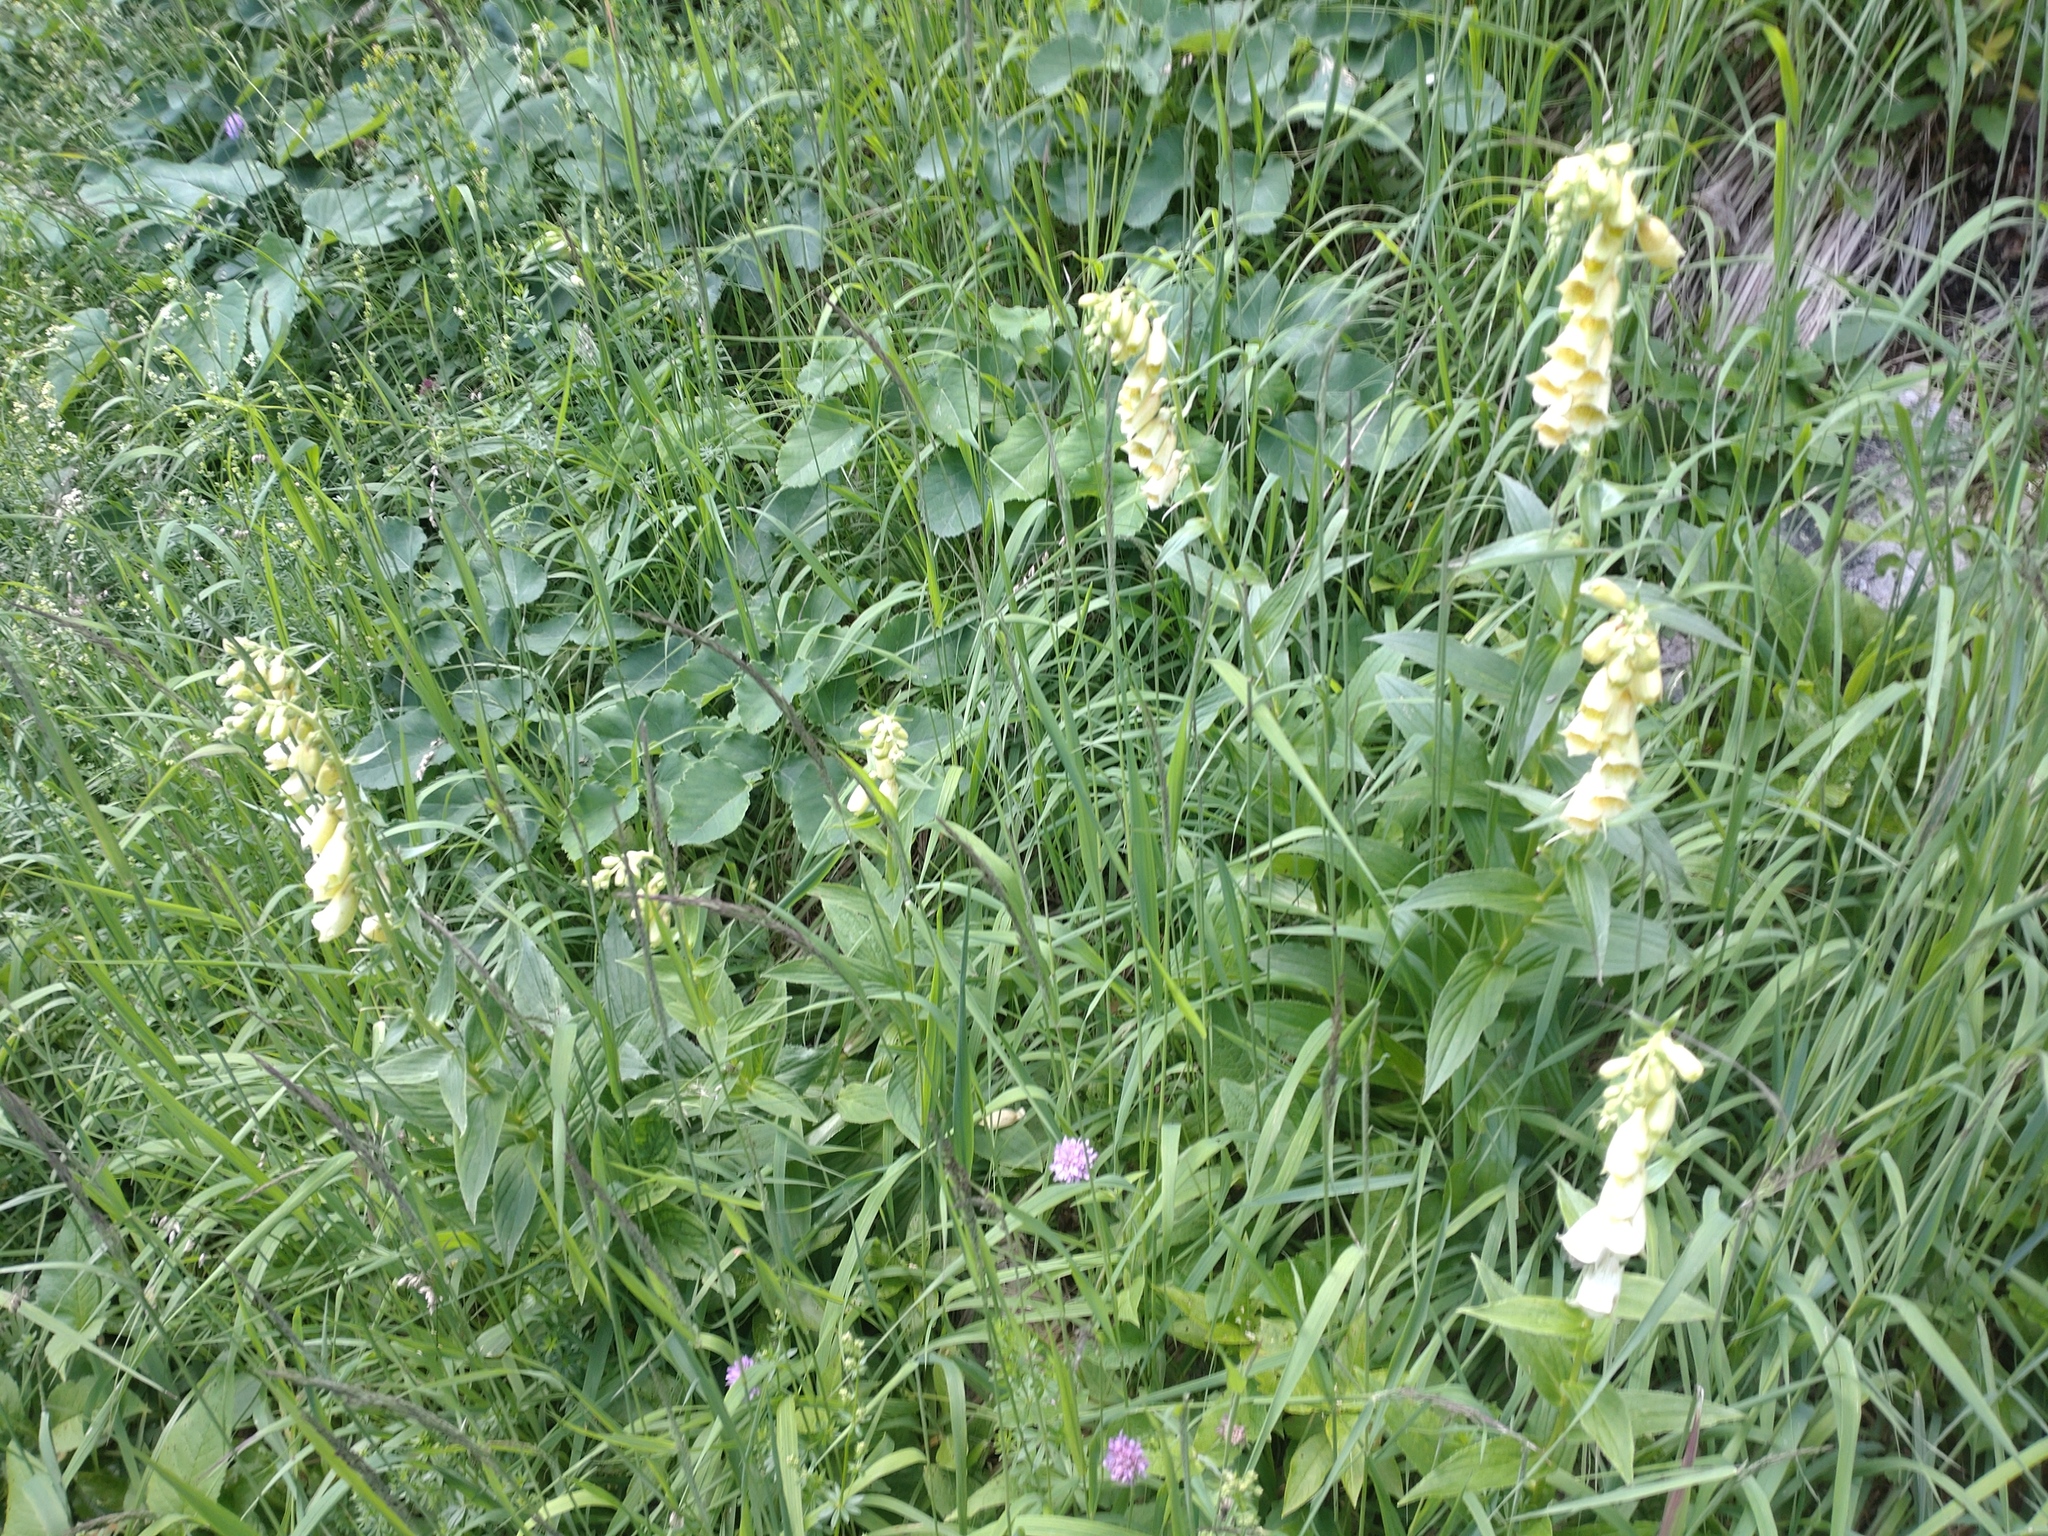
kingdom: Plantae
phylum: Tracheophyta
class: Magnoliopsida
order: Lamiales
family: Plantaginaceae
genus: Digitalis
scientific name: Digitalis grandiflora
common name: Yellow foxglove
